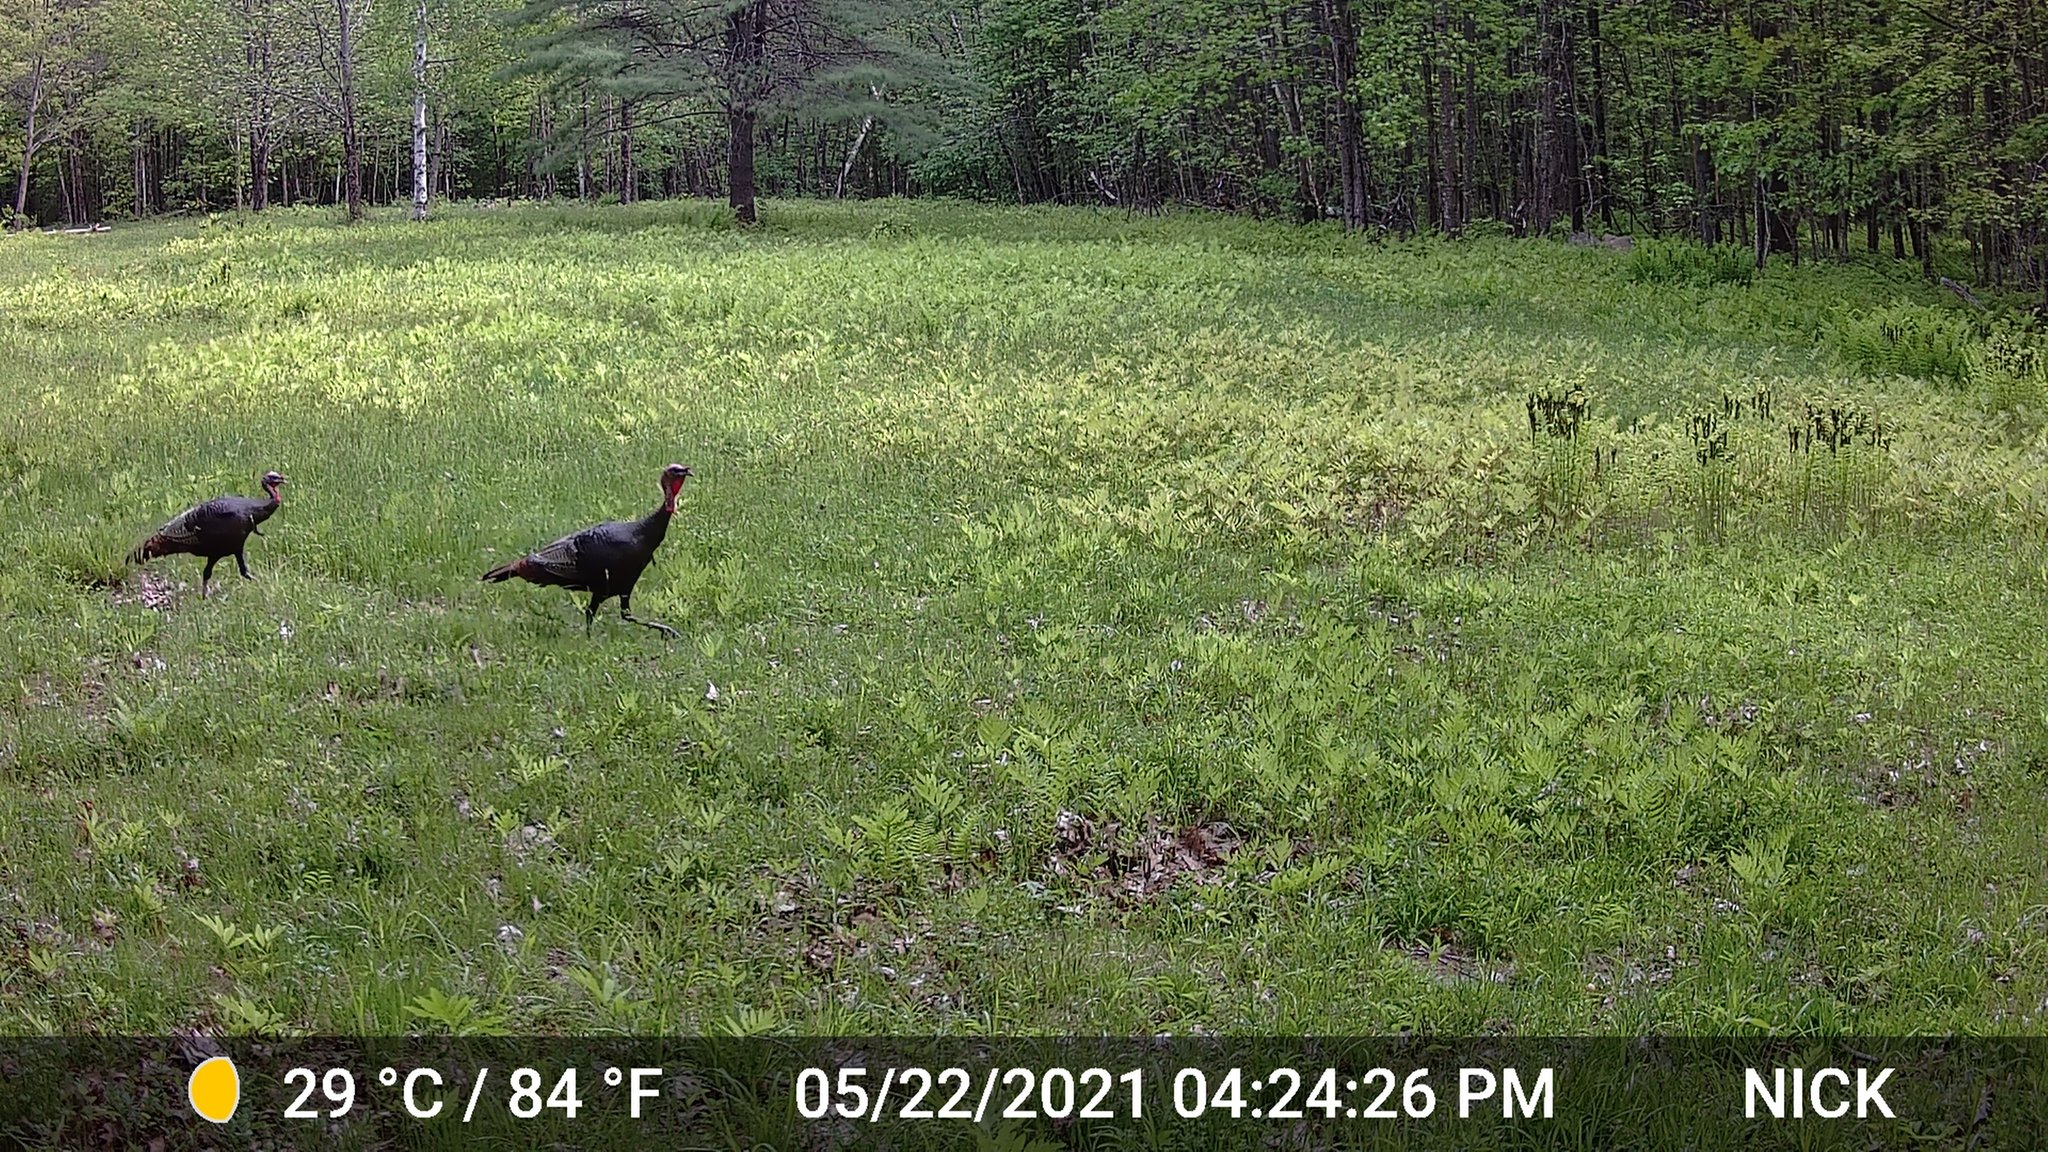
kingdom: Animalia
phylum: Chordata
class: Aves
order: Galliformes
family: Phasianidae
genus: Meleagris
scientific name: Meleagris gallopavo
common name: Wild turkey
